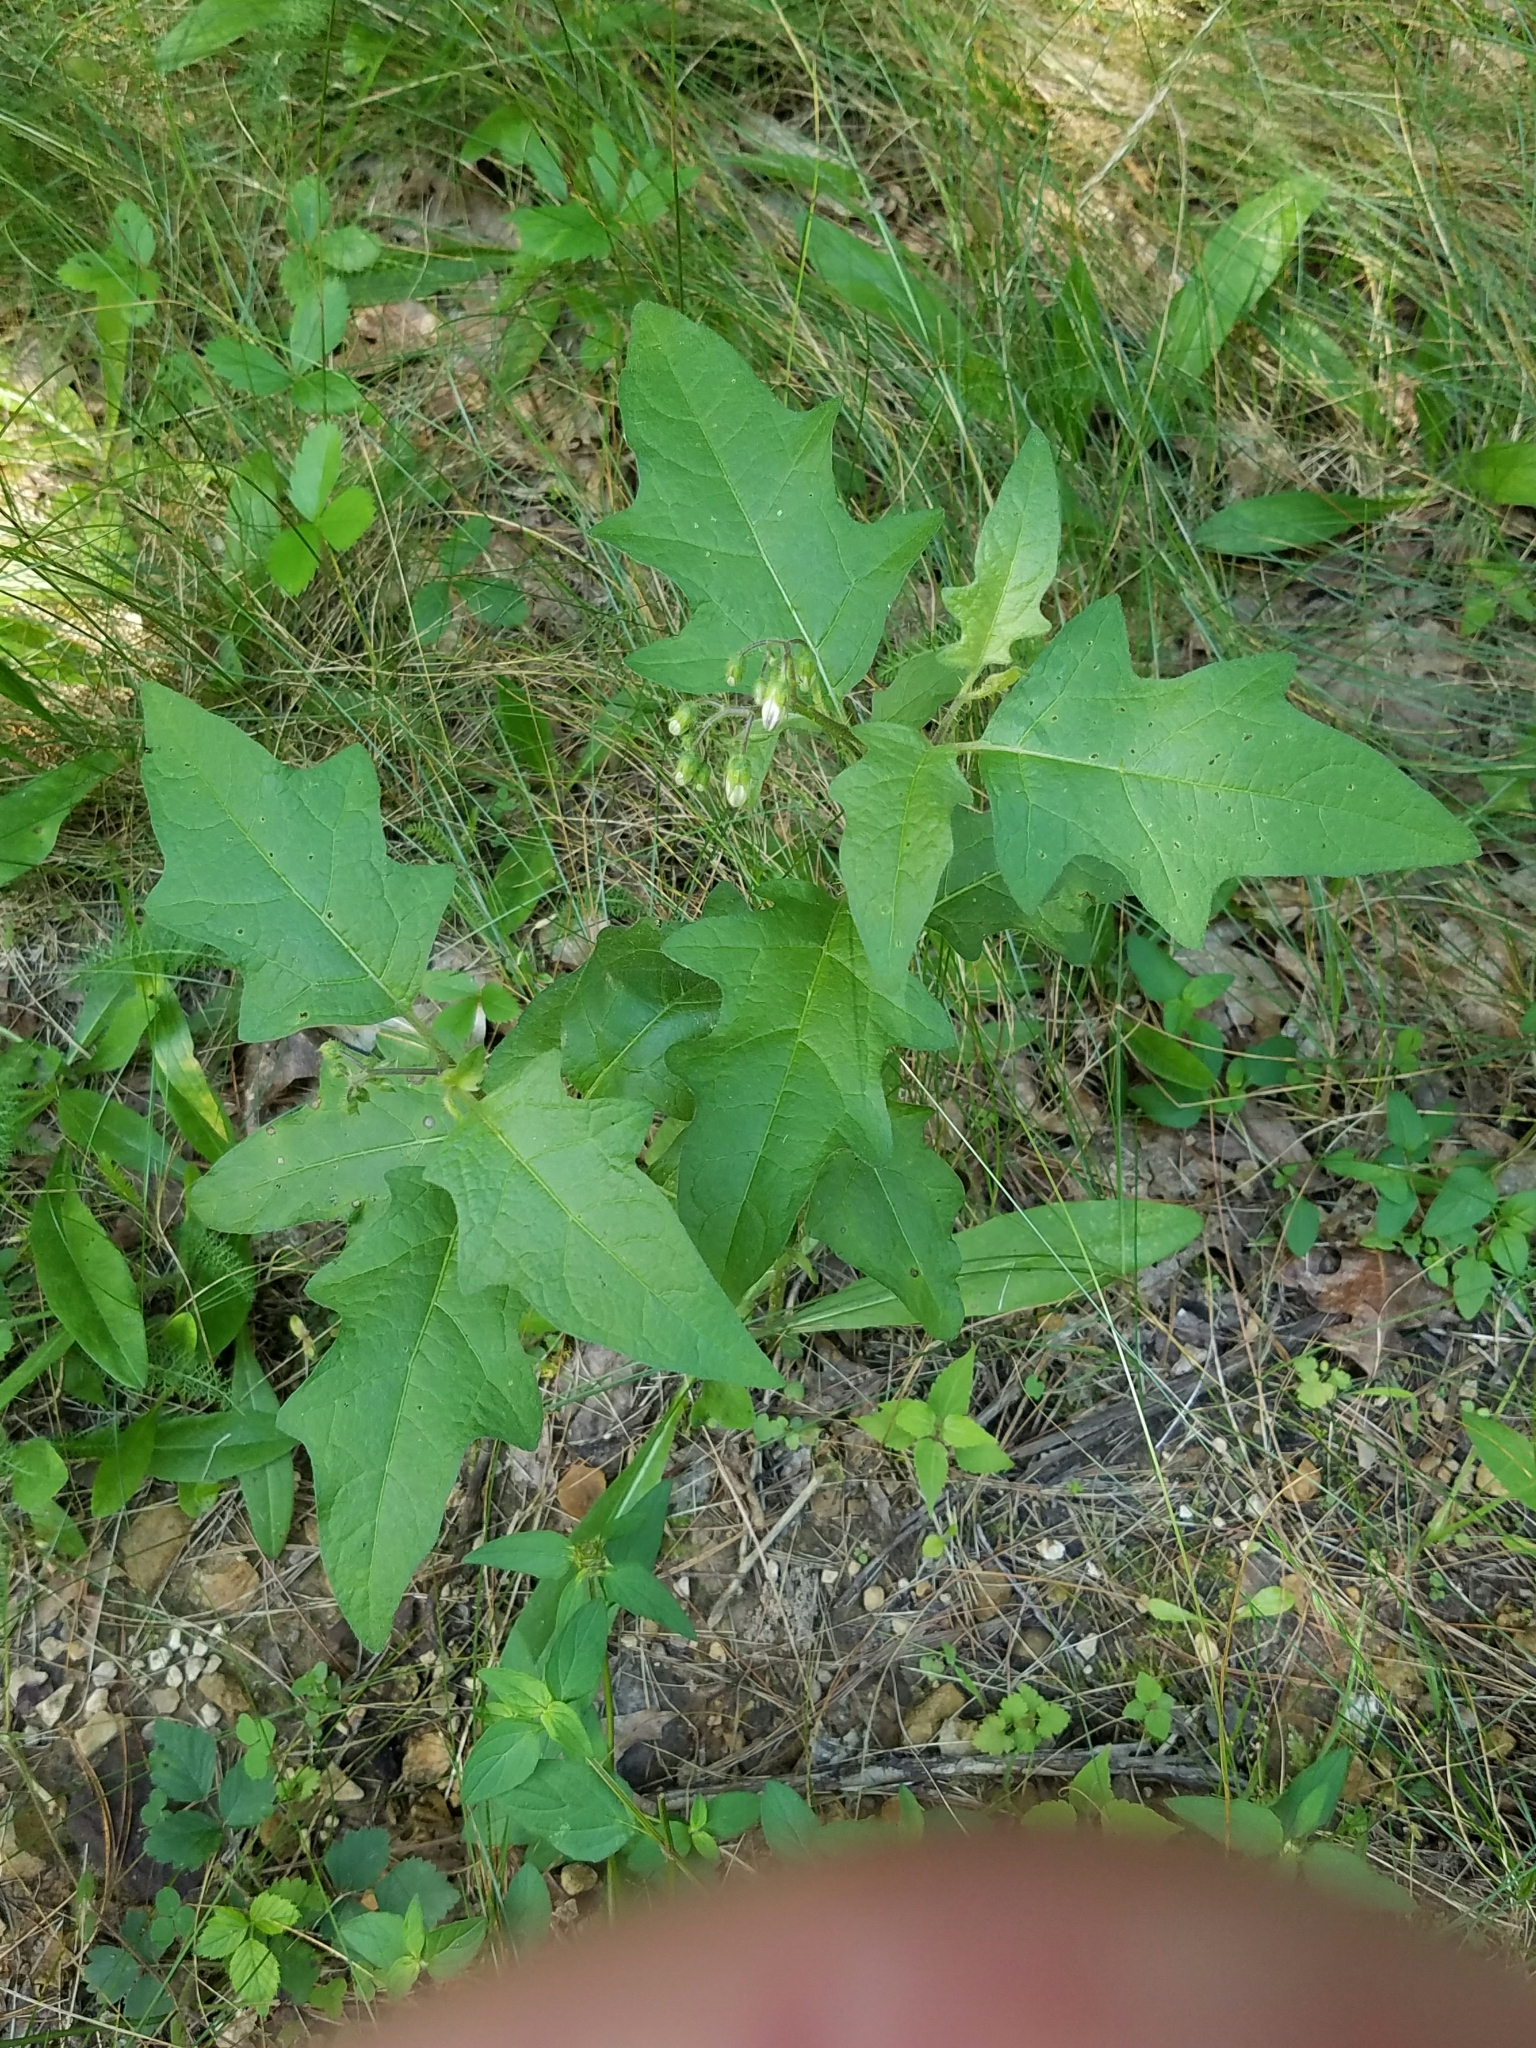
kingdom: Plantae
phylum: Tracheophyta
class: Magnoliopsida
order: Solanales
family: Solanaceae
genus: Solanum
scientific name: Solanum carolinense
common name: Horse-nettle
